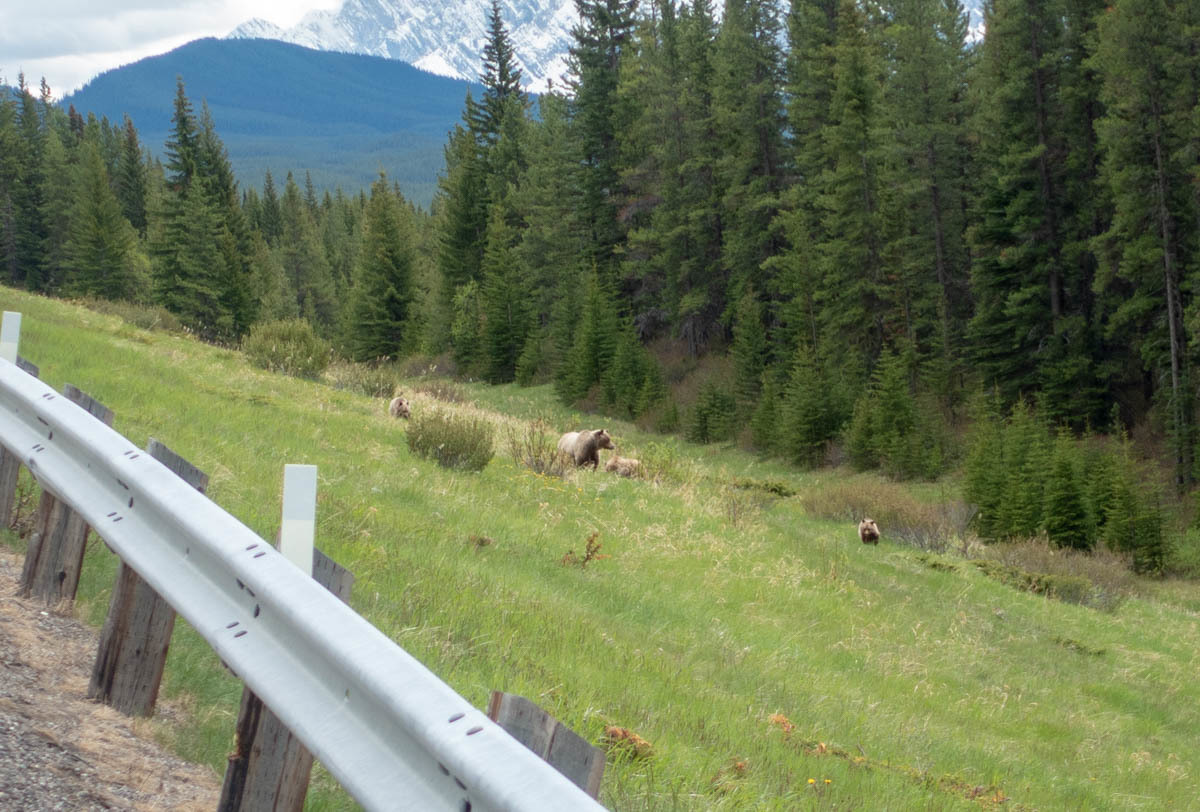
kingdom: Animalia
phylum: Chordata
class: Mammalia
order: Carnivora
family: Ursidae
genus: Ursus
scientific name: Ursus arctos
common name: Brown bear
